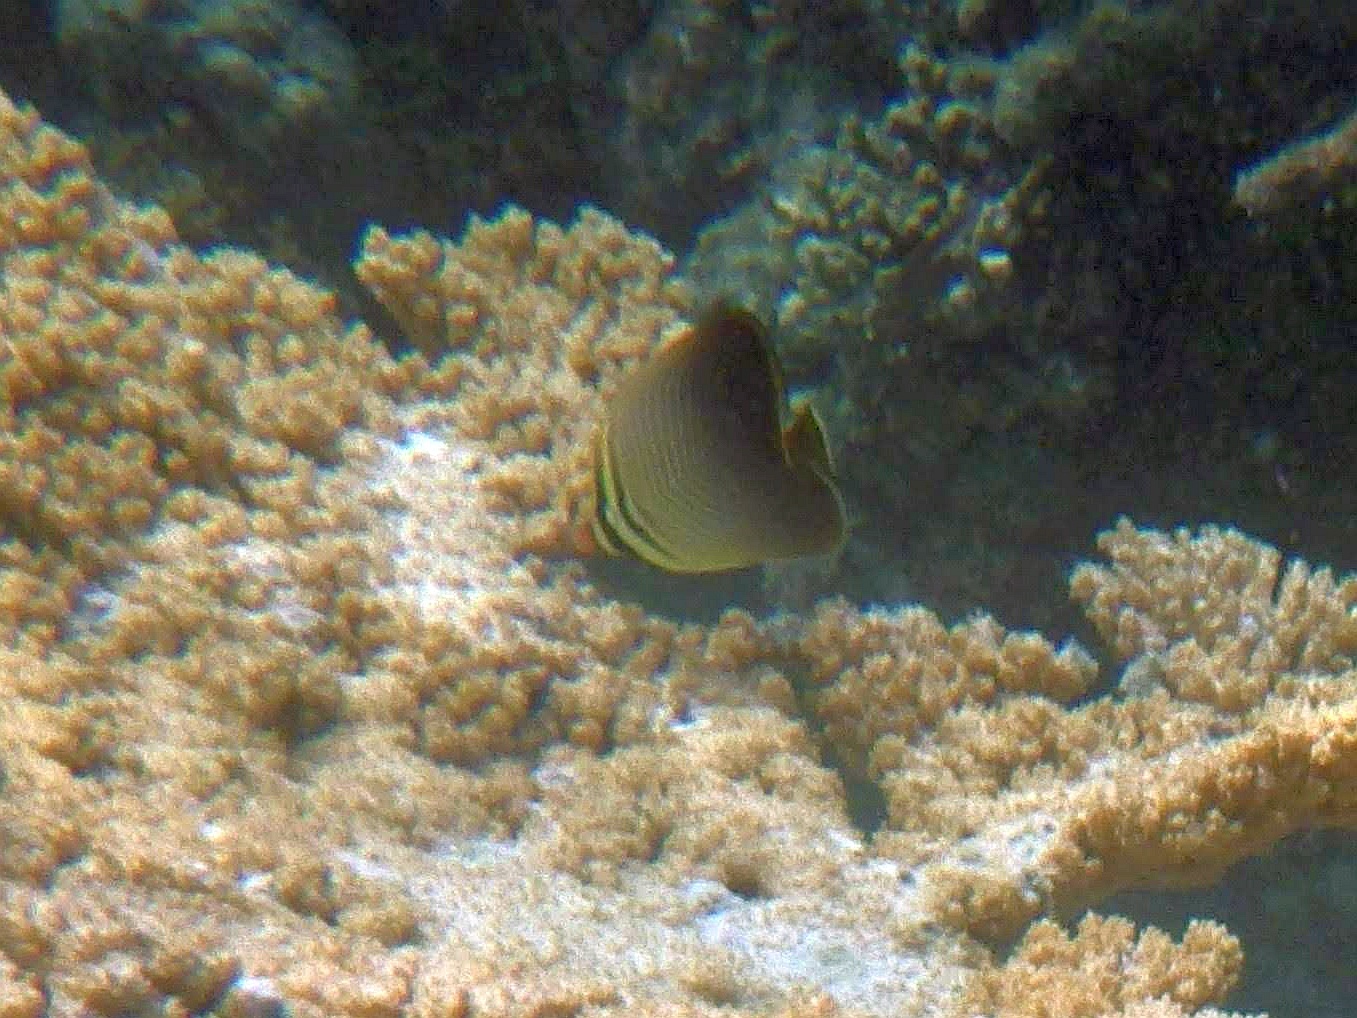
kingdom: Animalia
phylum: Chordata
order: Perciformes
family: Chaetodontidae
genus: Chaetodon
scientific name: Chaetodon baronessa
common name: Triangular butterflyfish
